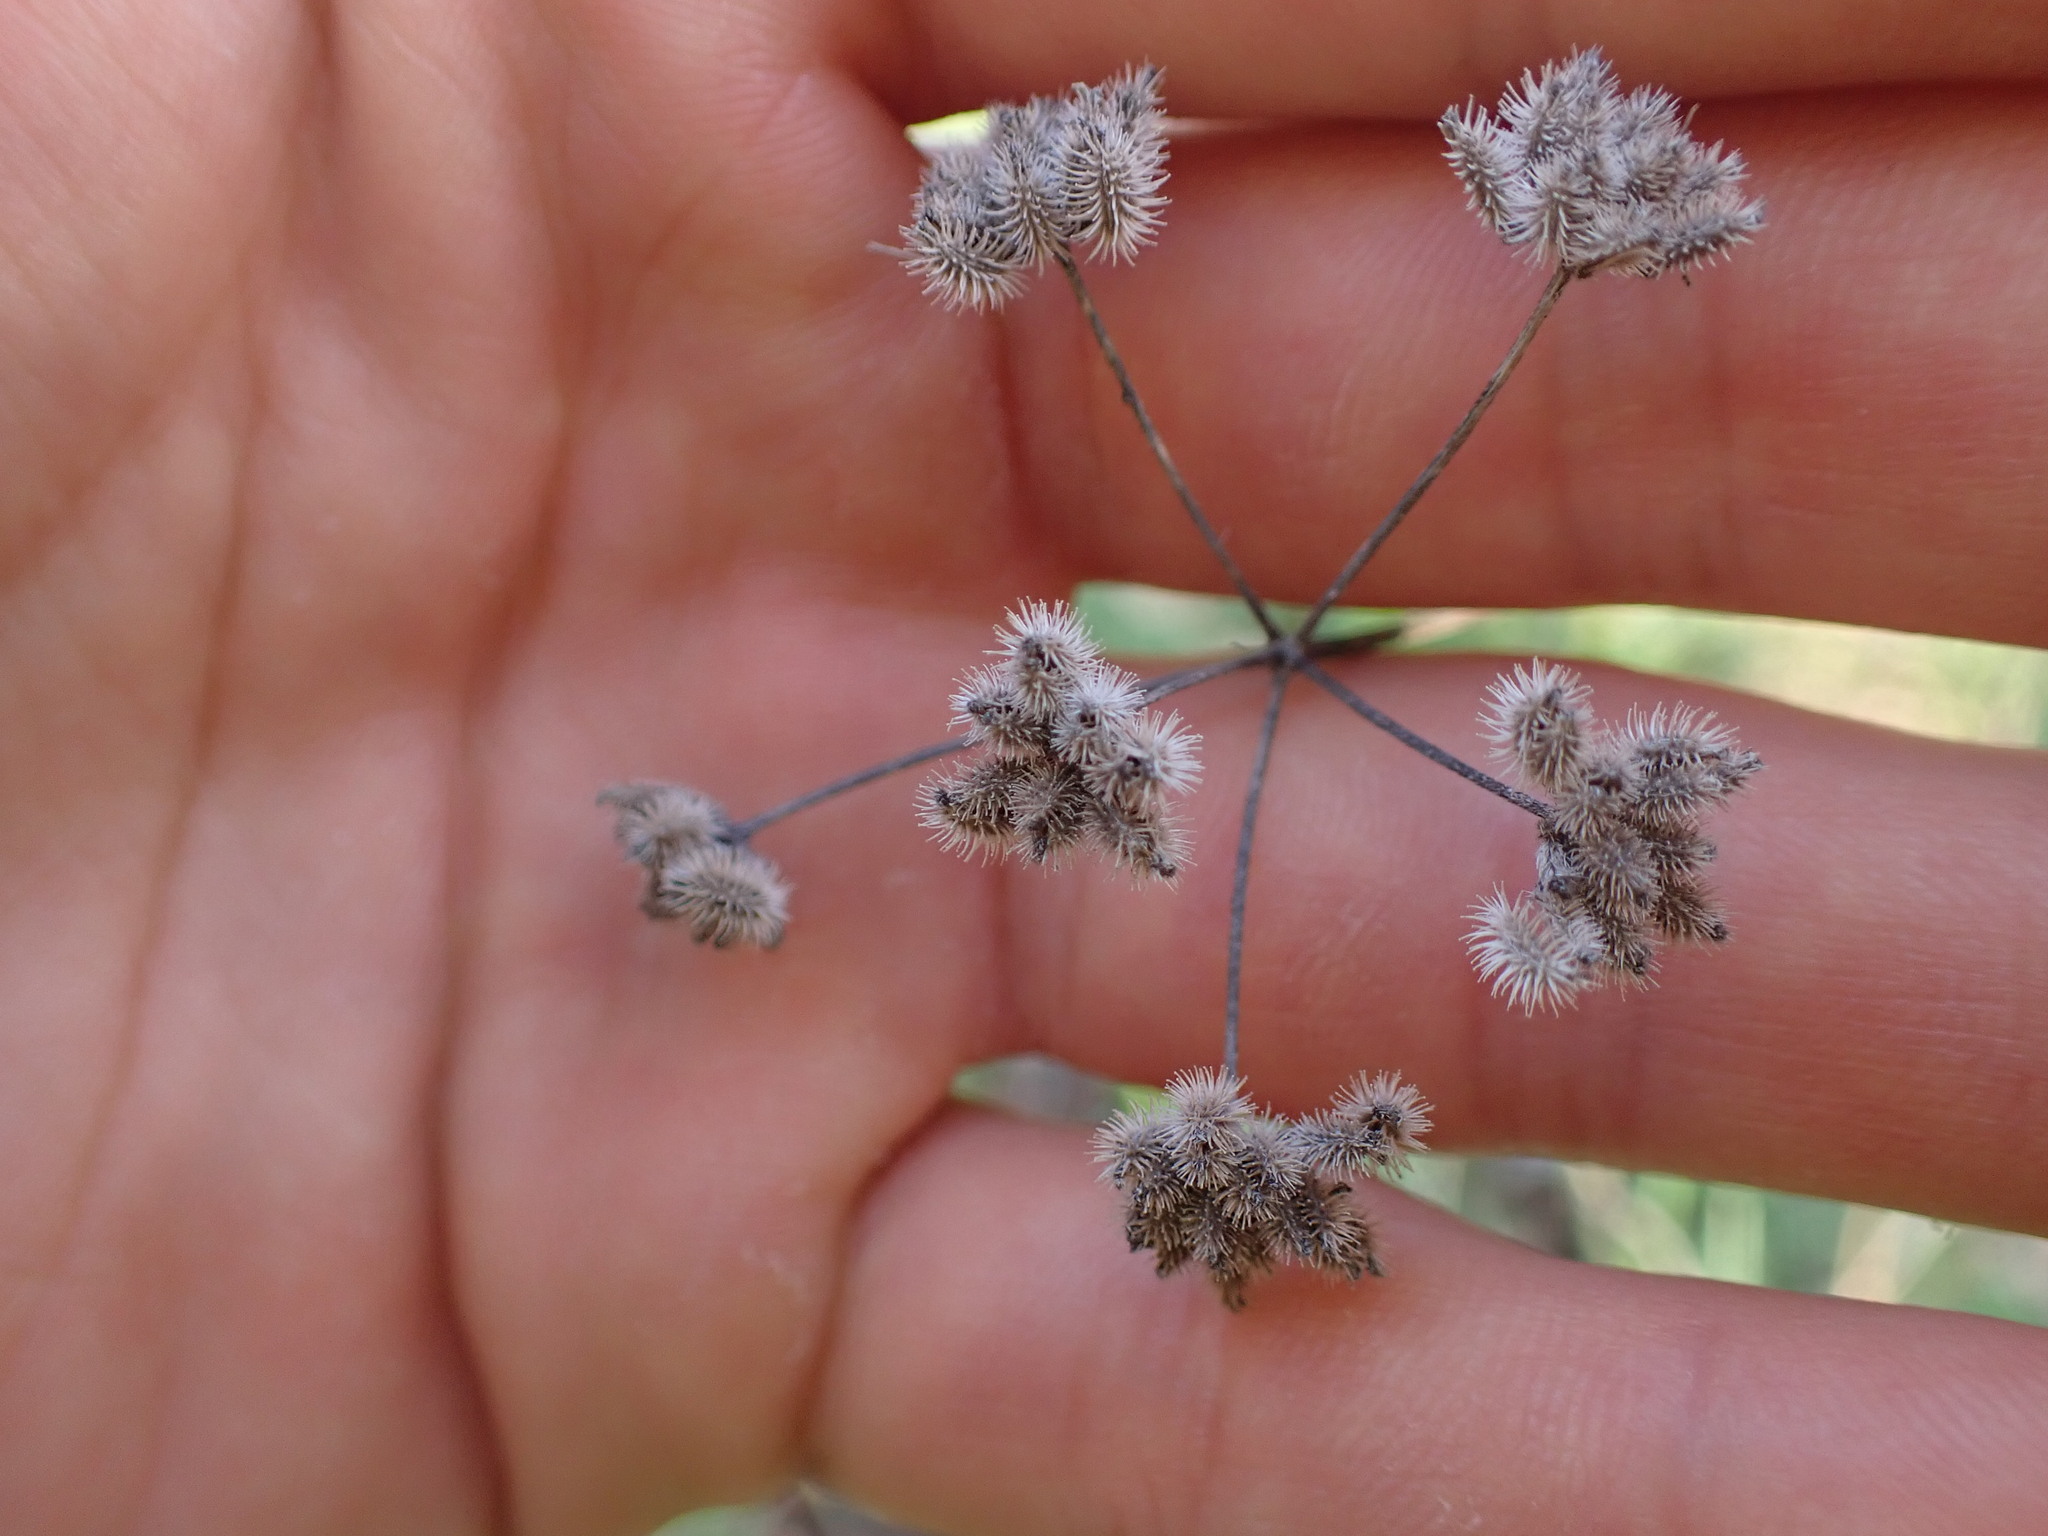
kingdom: Plantae
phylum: Tracheophyta
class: Magnoliopsida
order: Apiales
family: Apiaceae
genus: Torilis
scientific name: Torilis arvensis
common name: Spreading hedge-parsley
